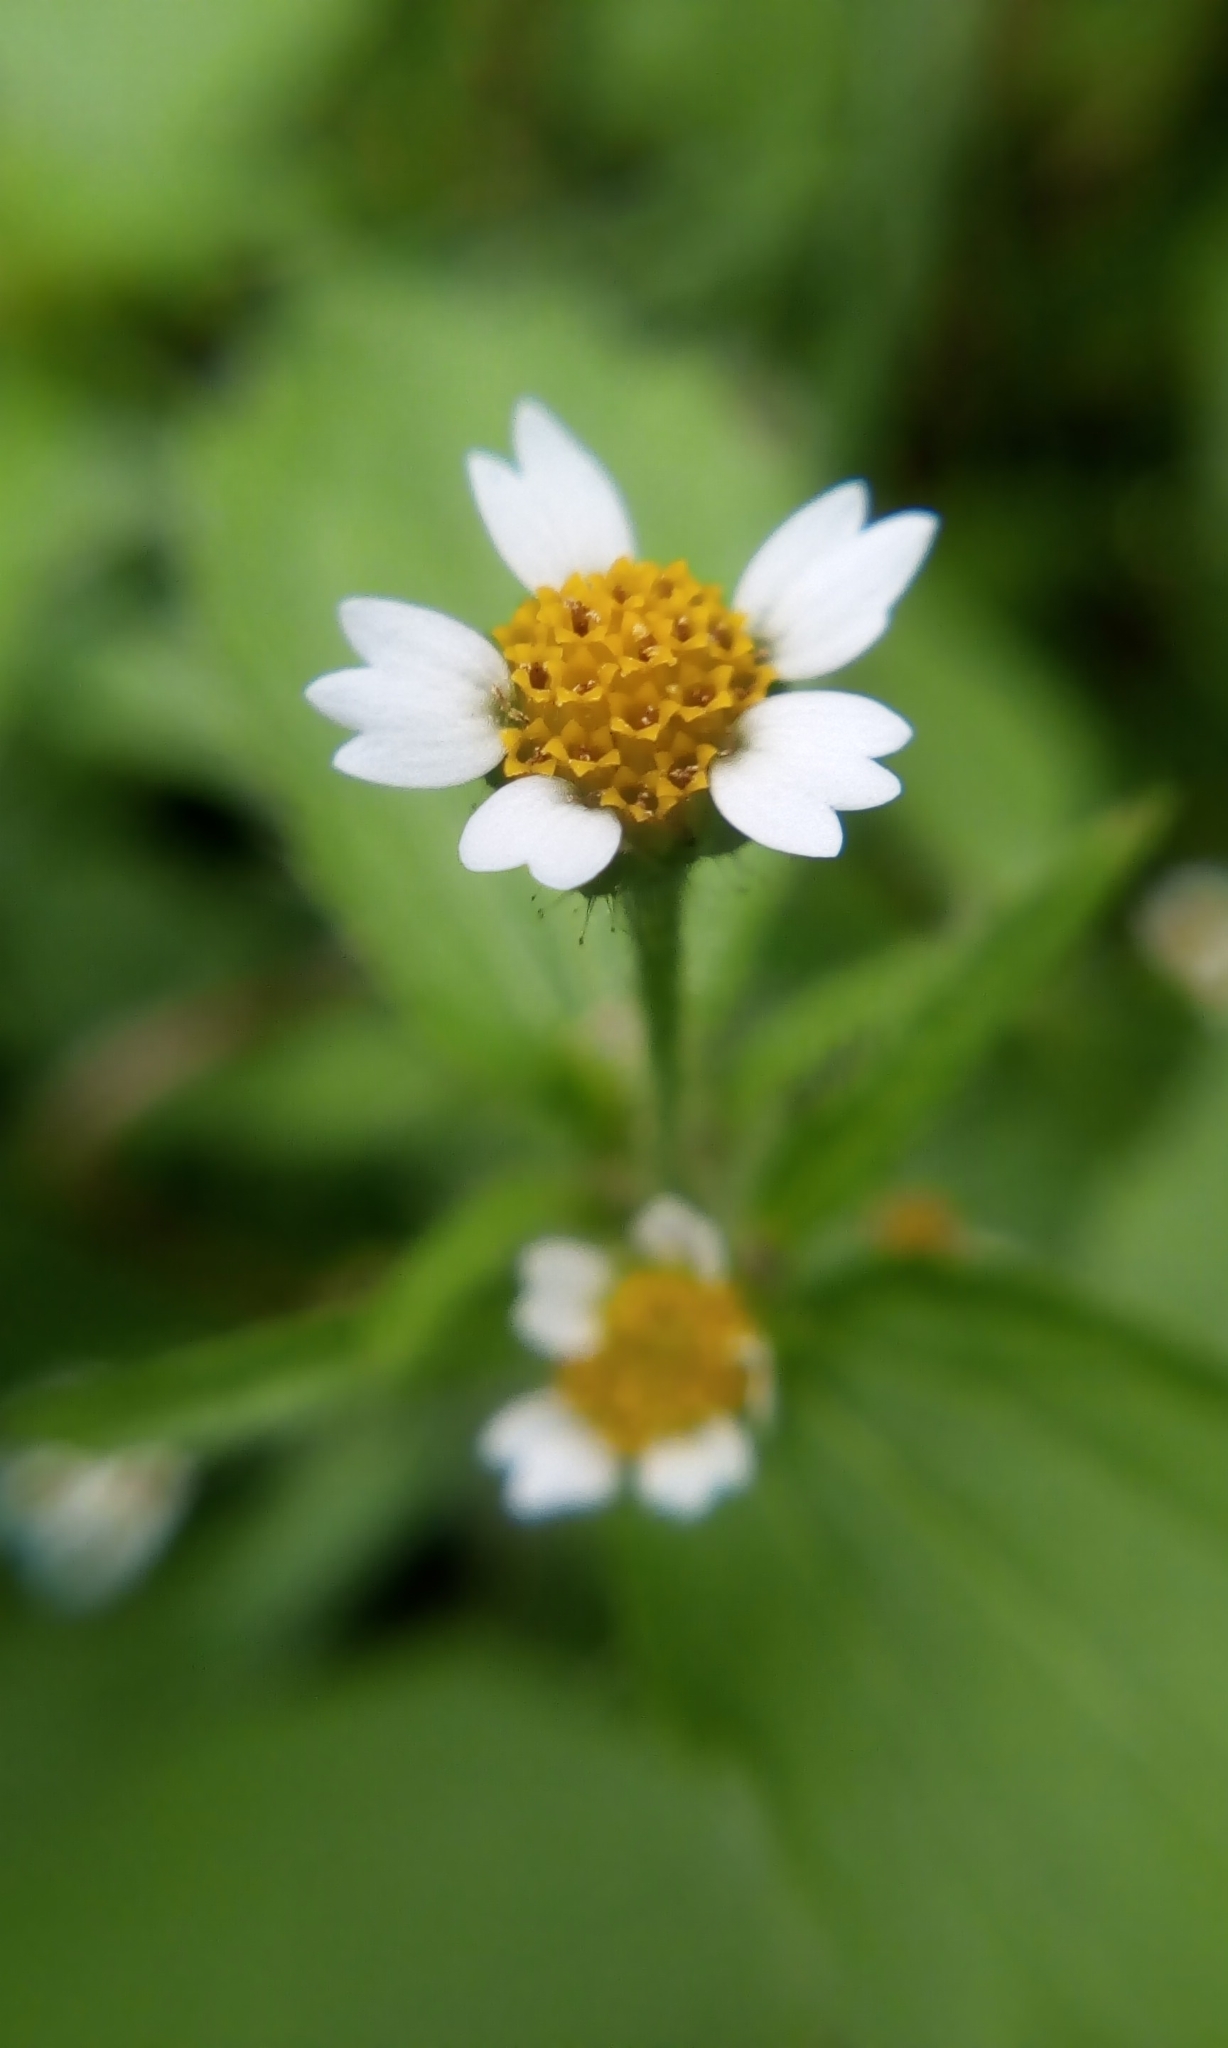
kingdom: Plantae
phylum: Tracheophyta
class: Magnoliopsida
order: Asterales
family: Asteraceae
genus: Galinsoga
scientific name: Galinsoga quadriradiata
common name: Shaggy soldier
